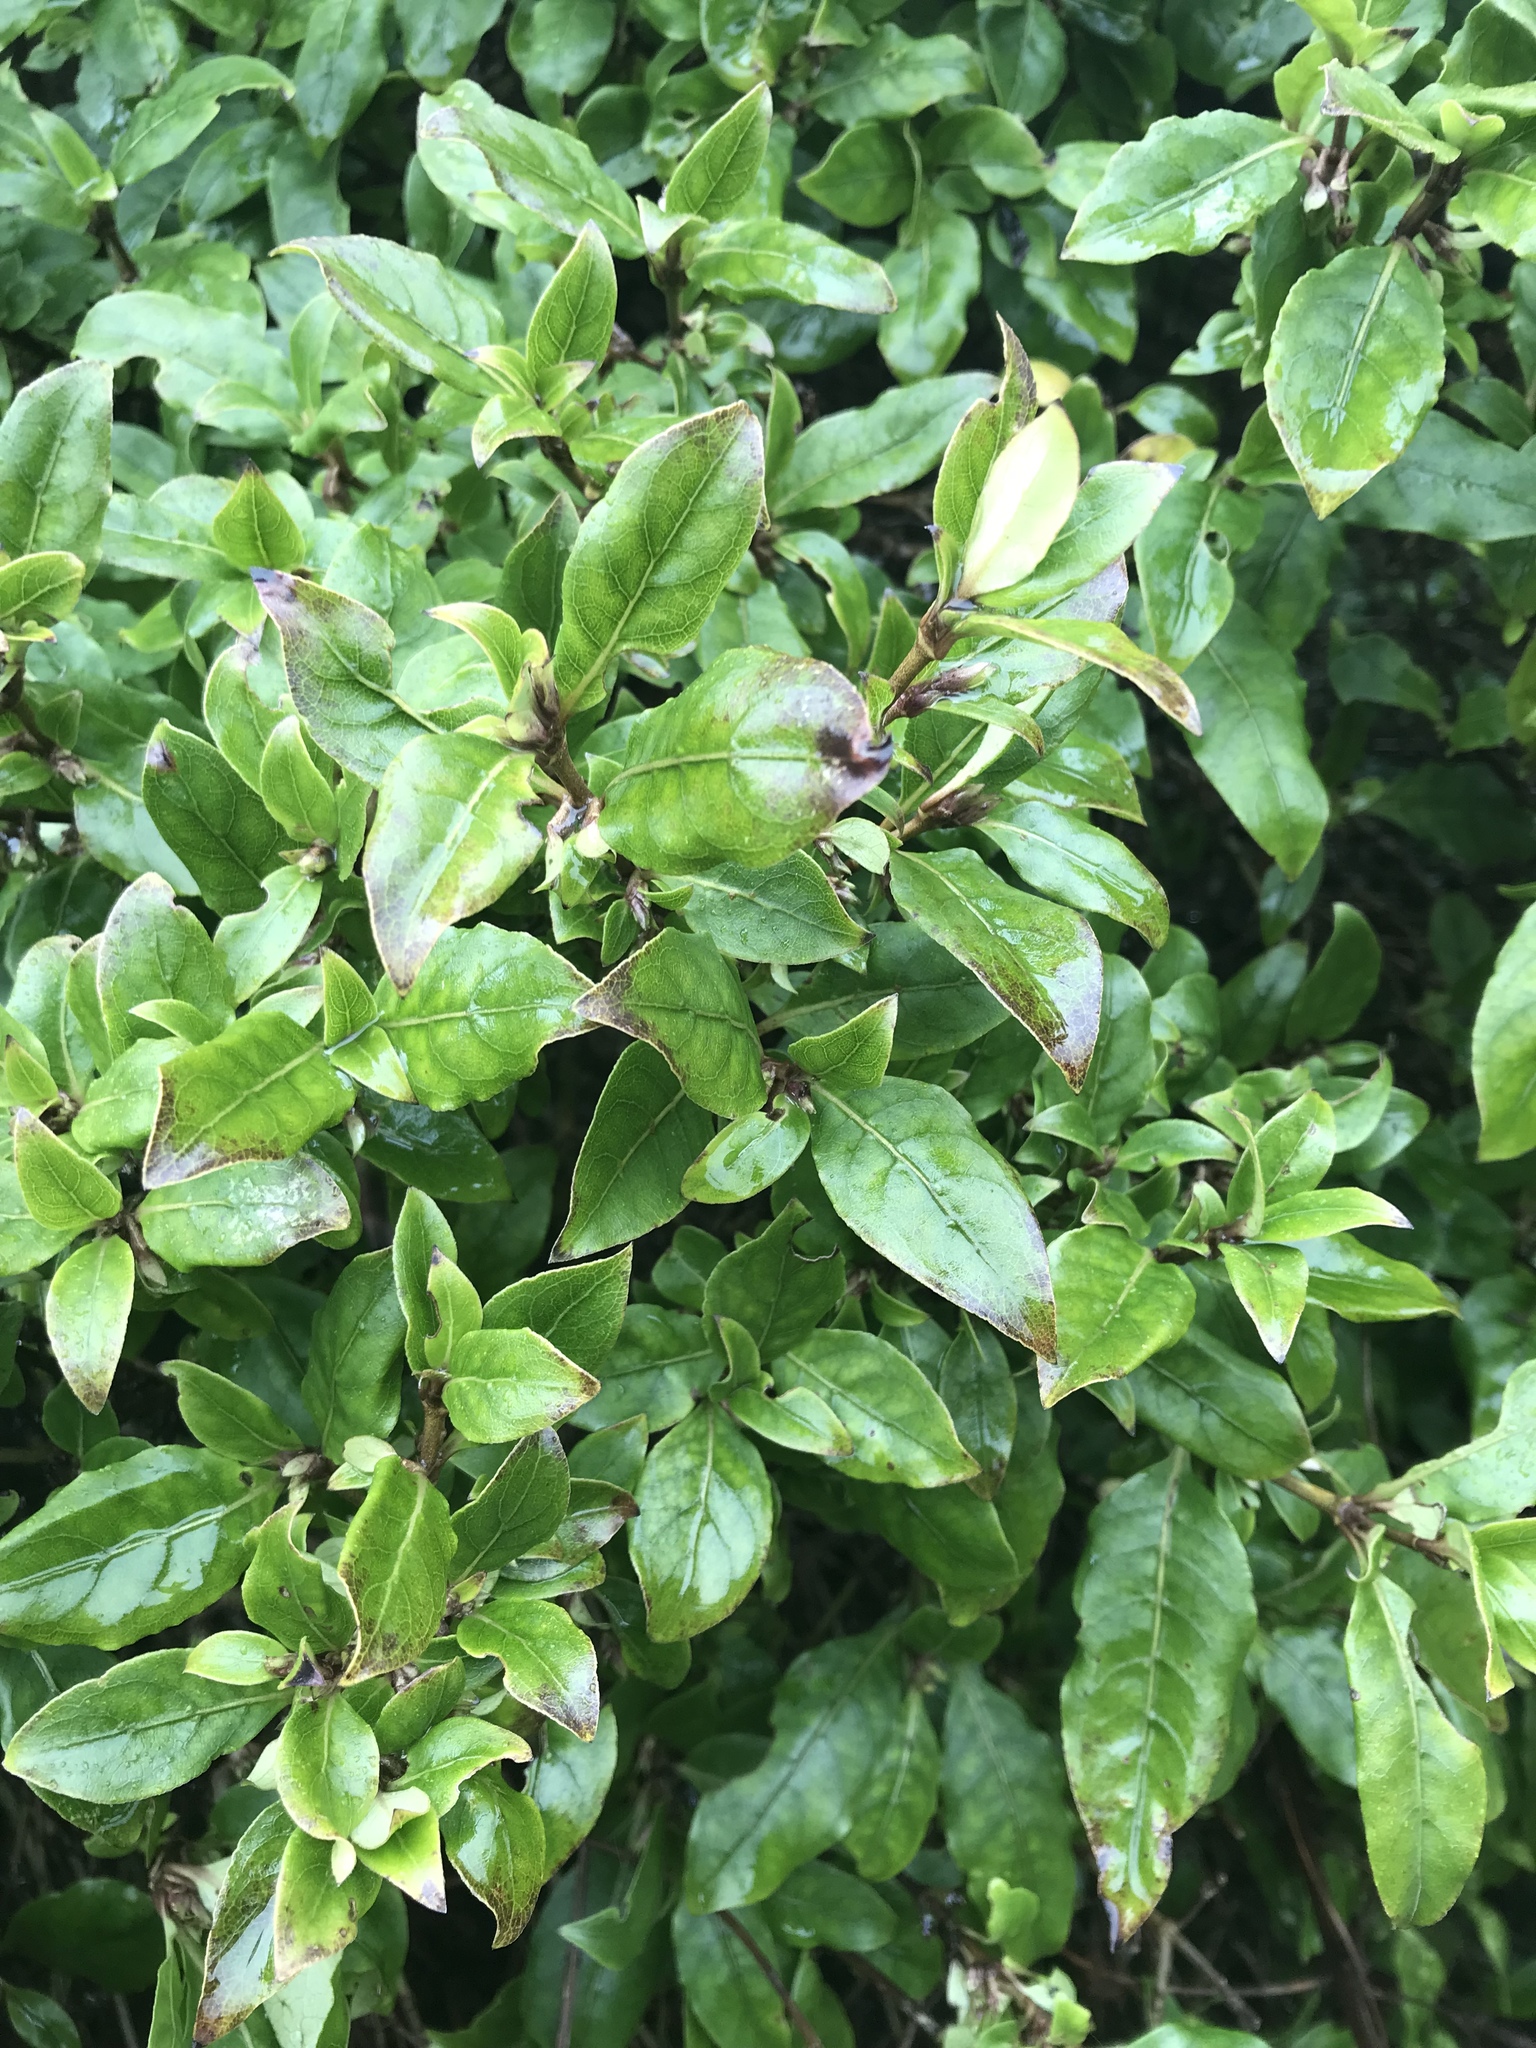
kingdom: Plantae
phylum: Tracheophyta
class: Magnoliopsida
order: Gentianales
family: Rubiaceae
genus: Coprosma
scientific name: Coprosma tenuifolia
